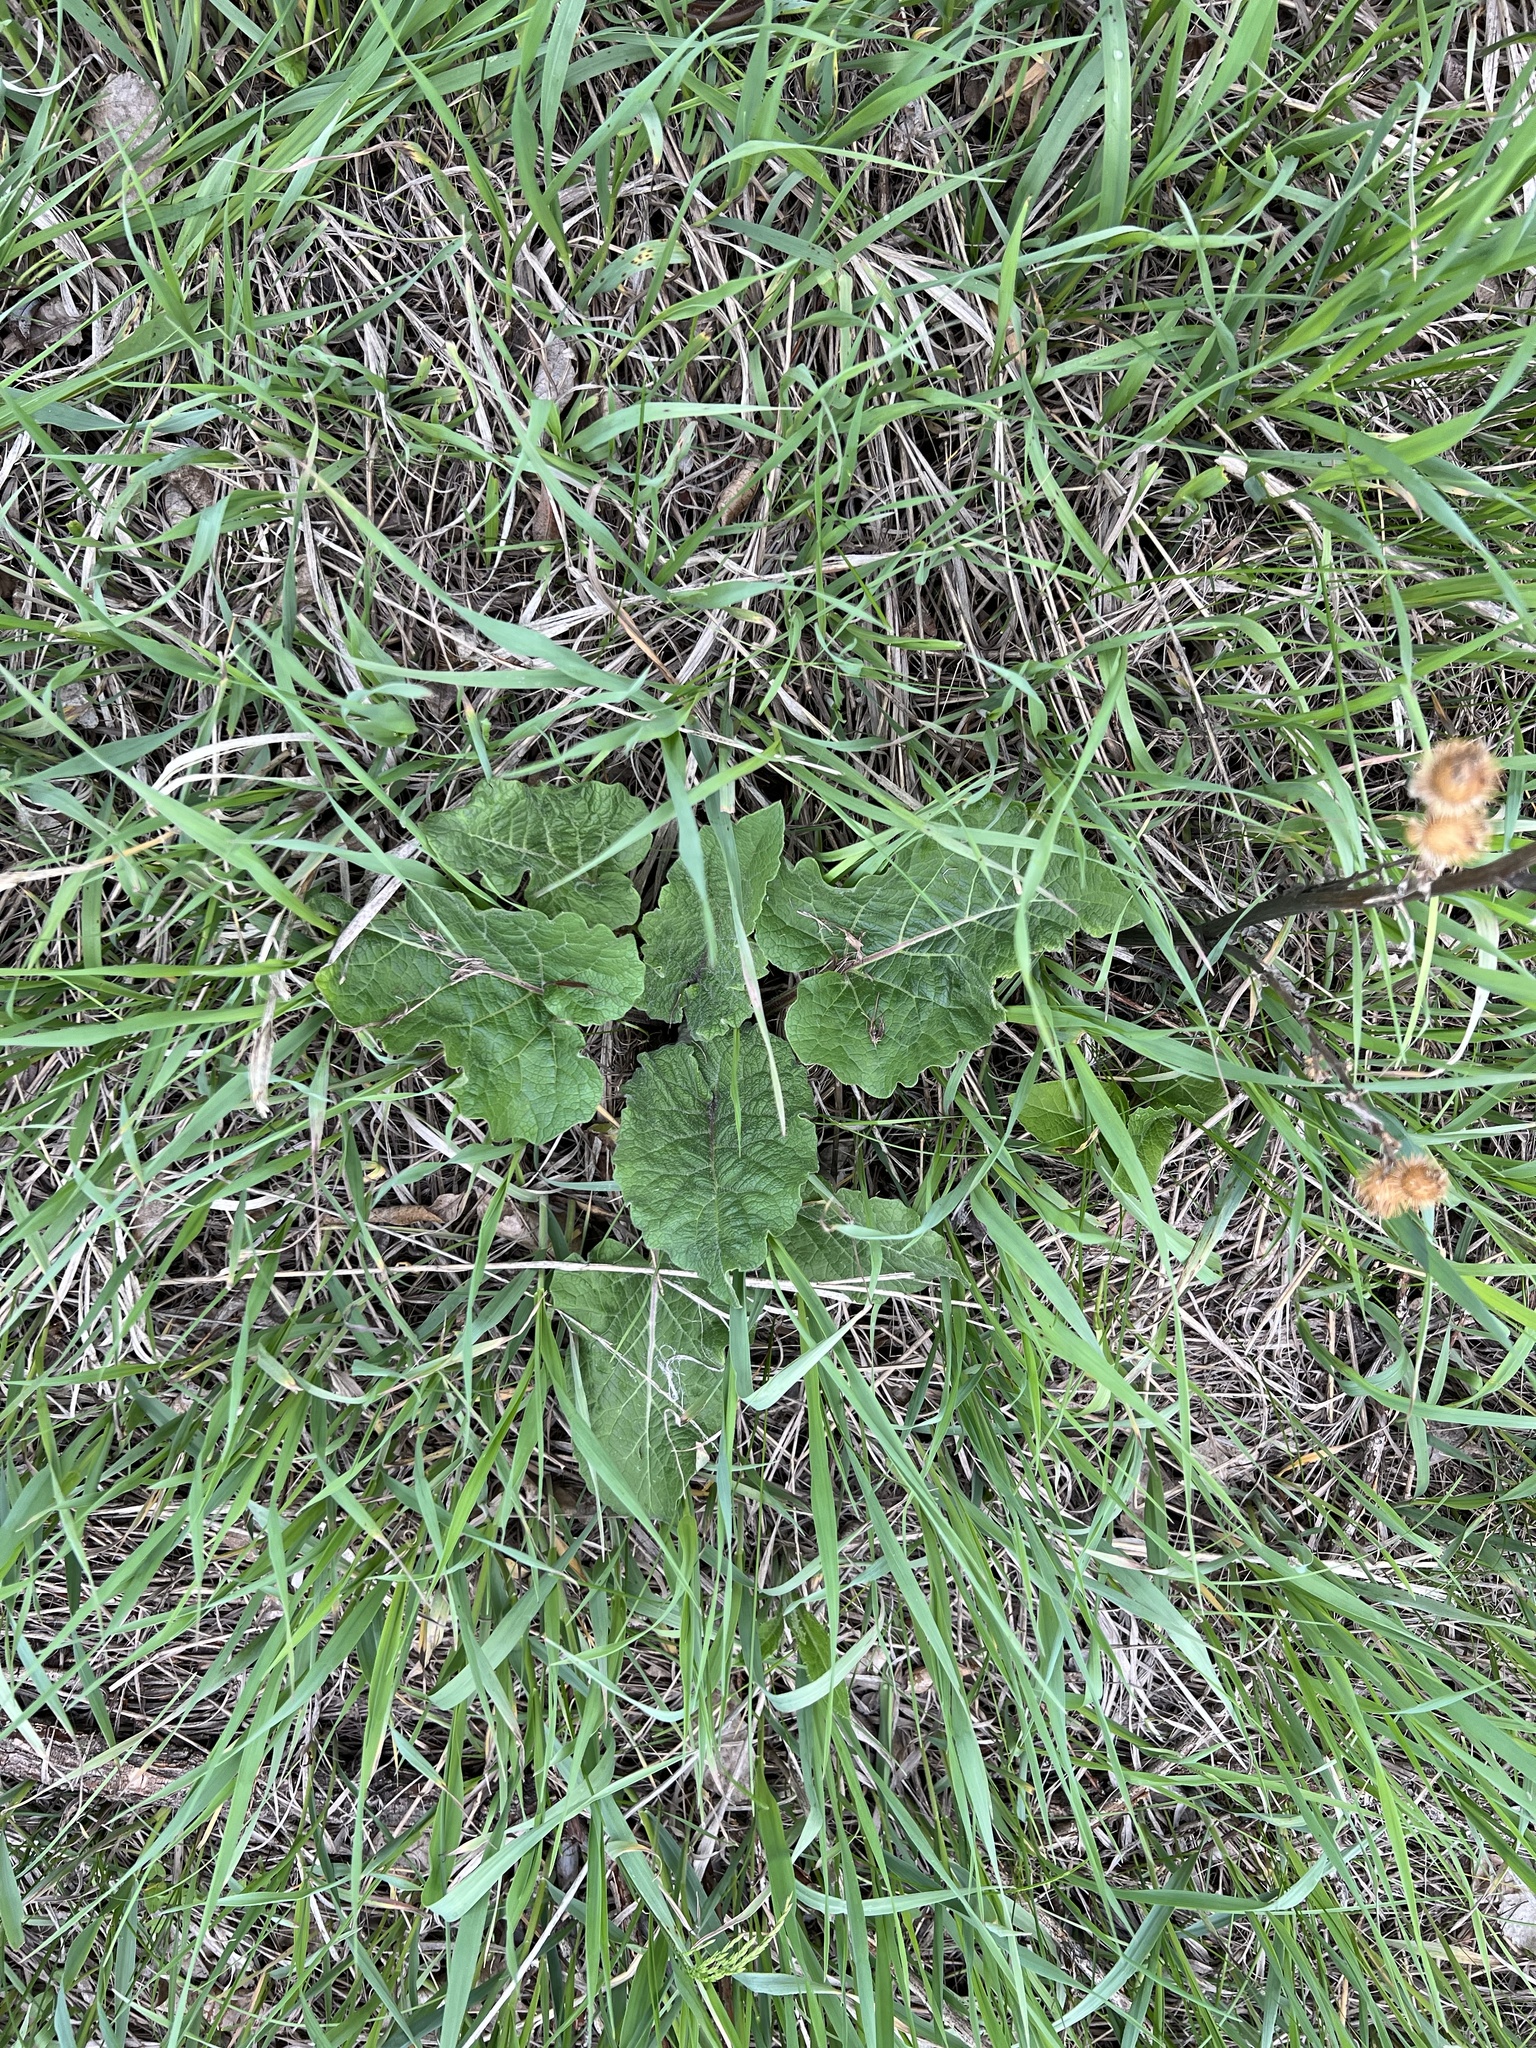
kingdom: Plantae
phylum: Tracheophyta
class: Magnoliopsida
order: Asterales
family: Asteraceae
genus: Arctium
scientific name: Arctium minus
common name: Lesser burdock
